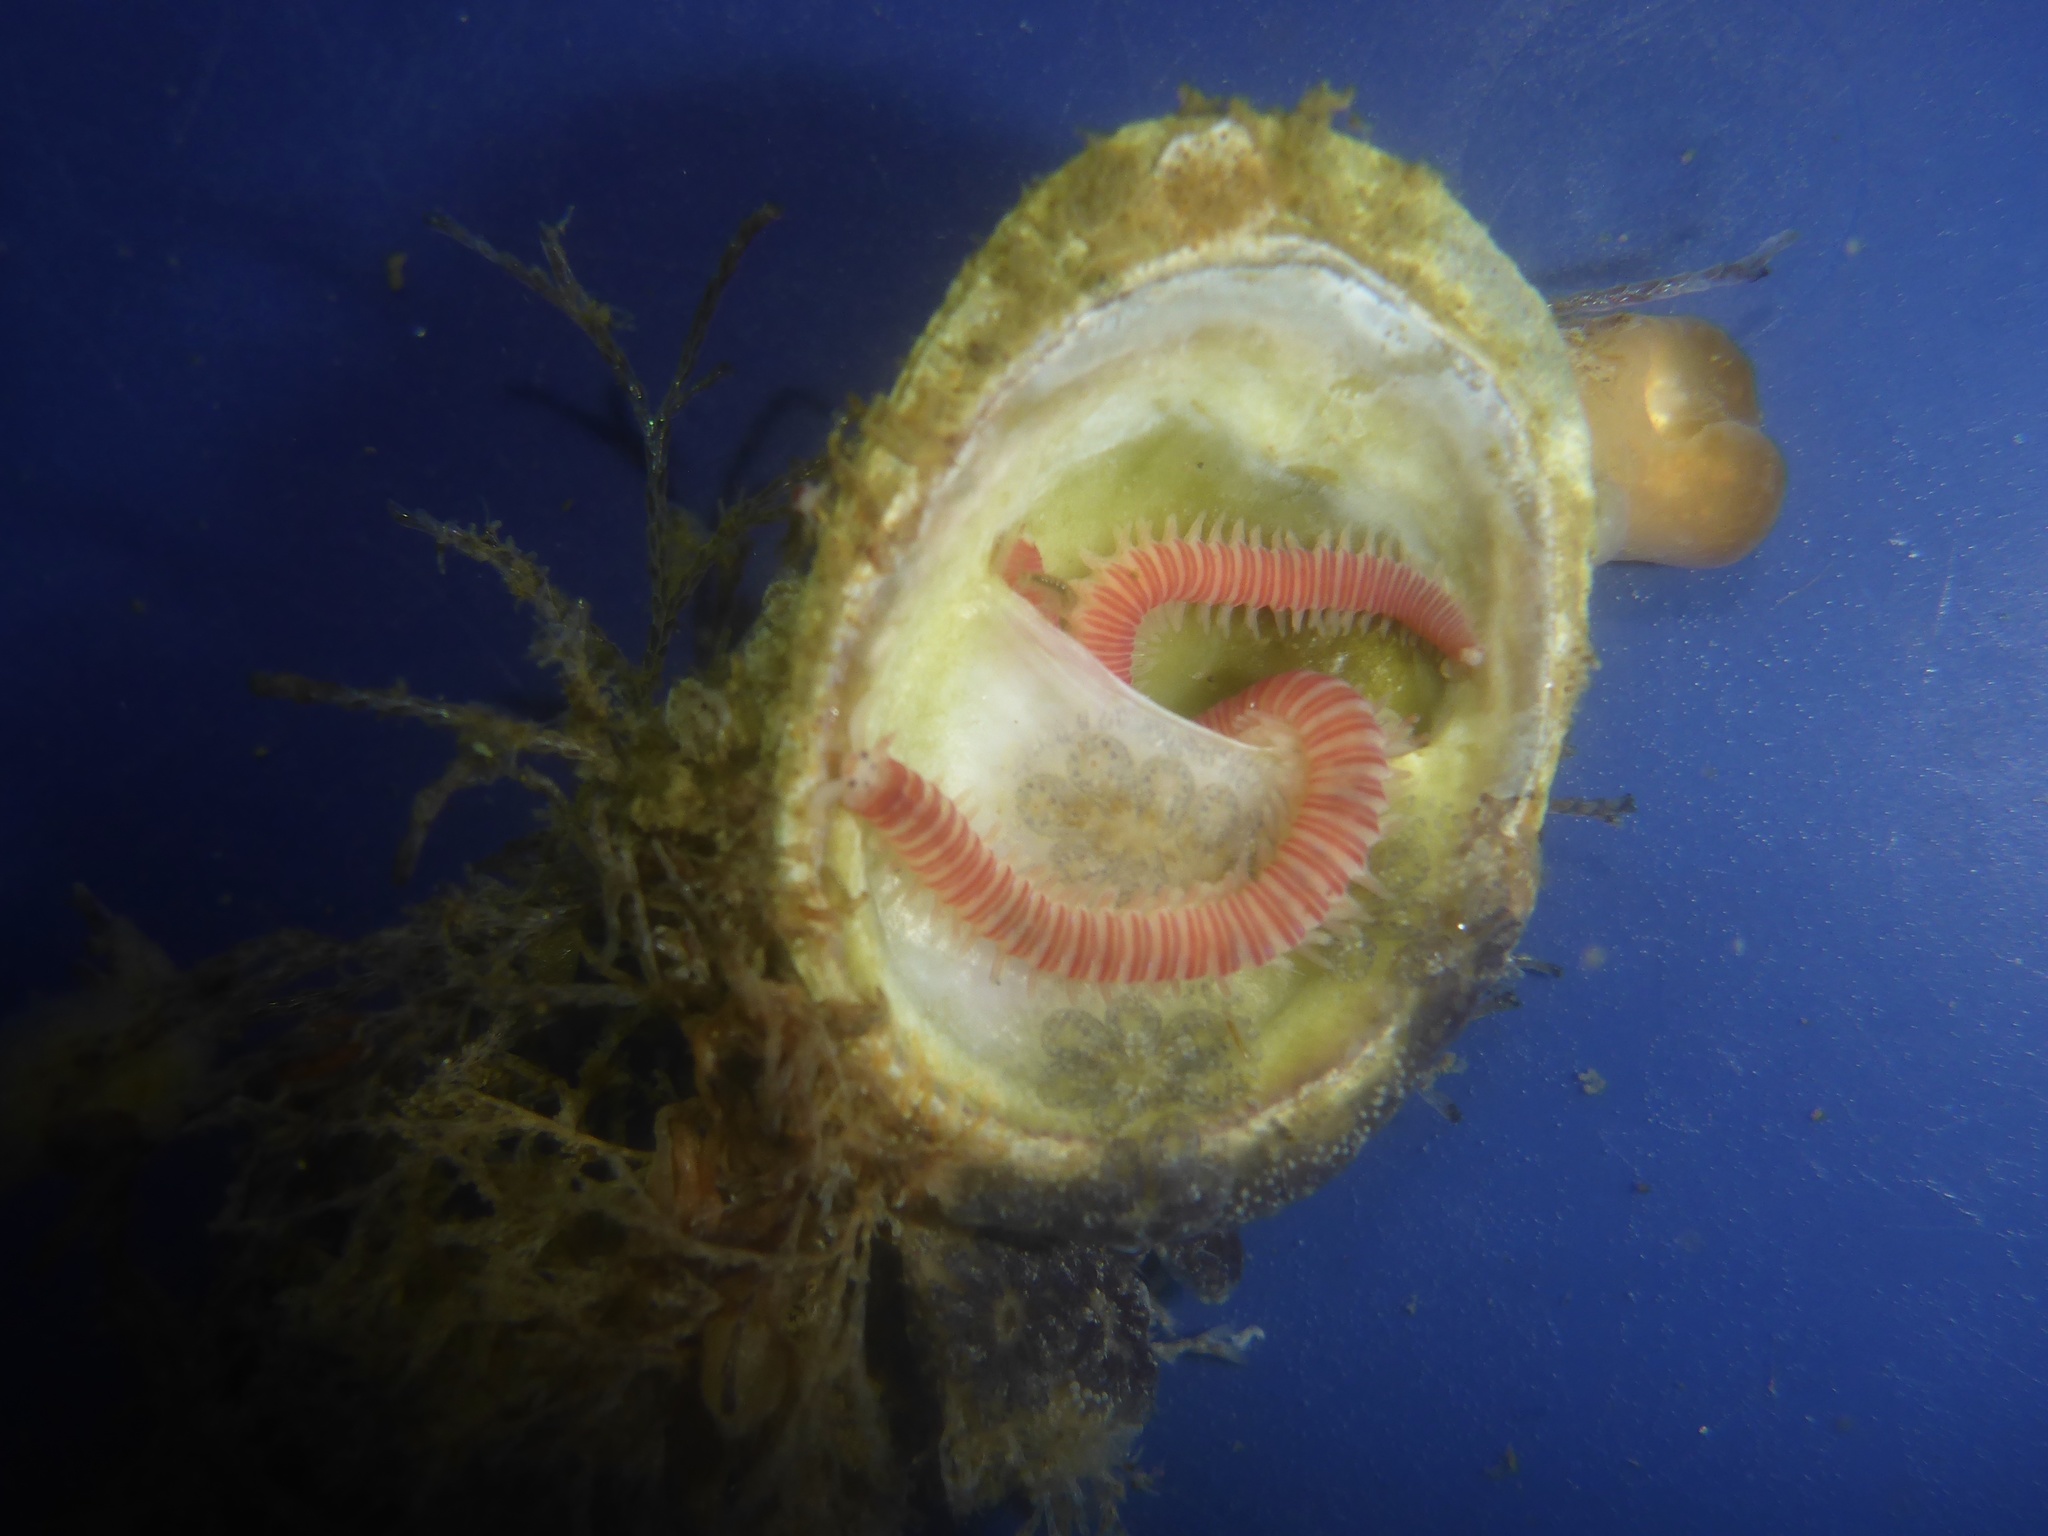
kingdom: Animalia
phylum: Annelida
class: Polychaeta
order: Eunicida
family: Dorvilleidae
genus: Dorvillea
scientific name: Dorvillea moniloceras
